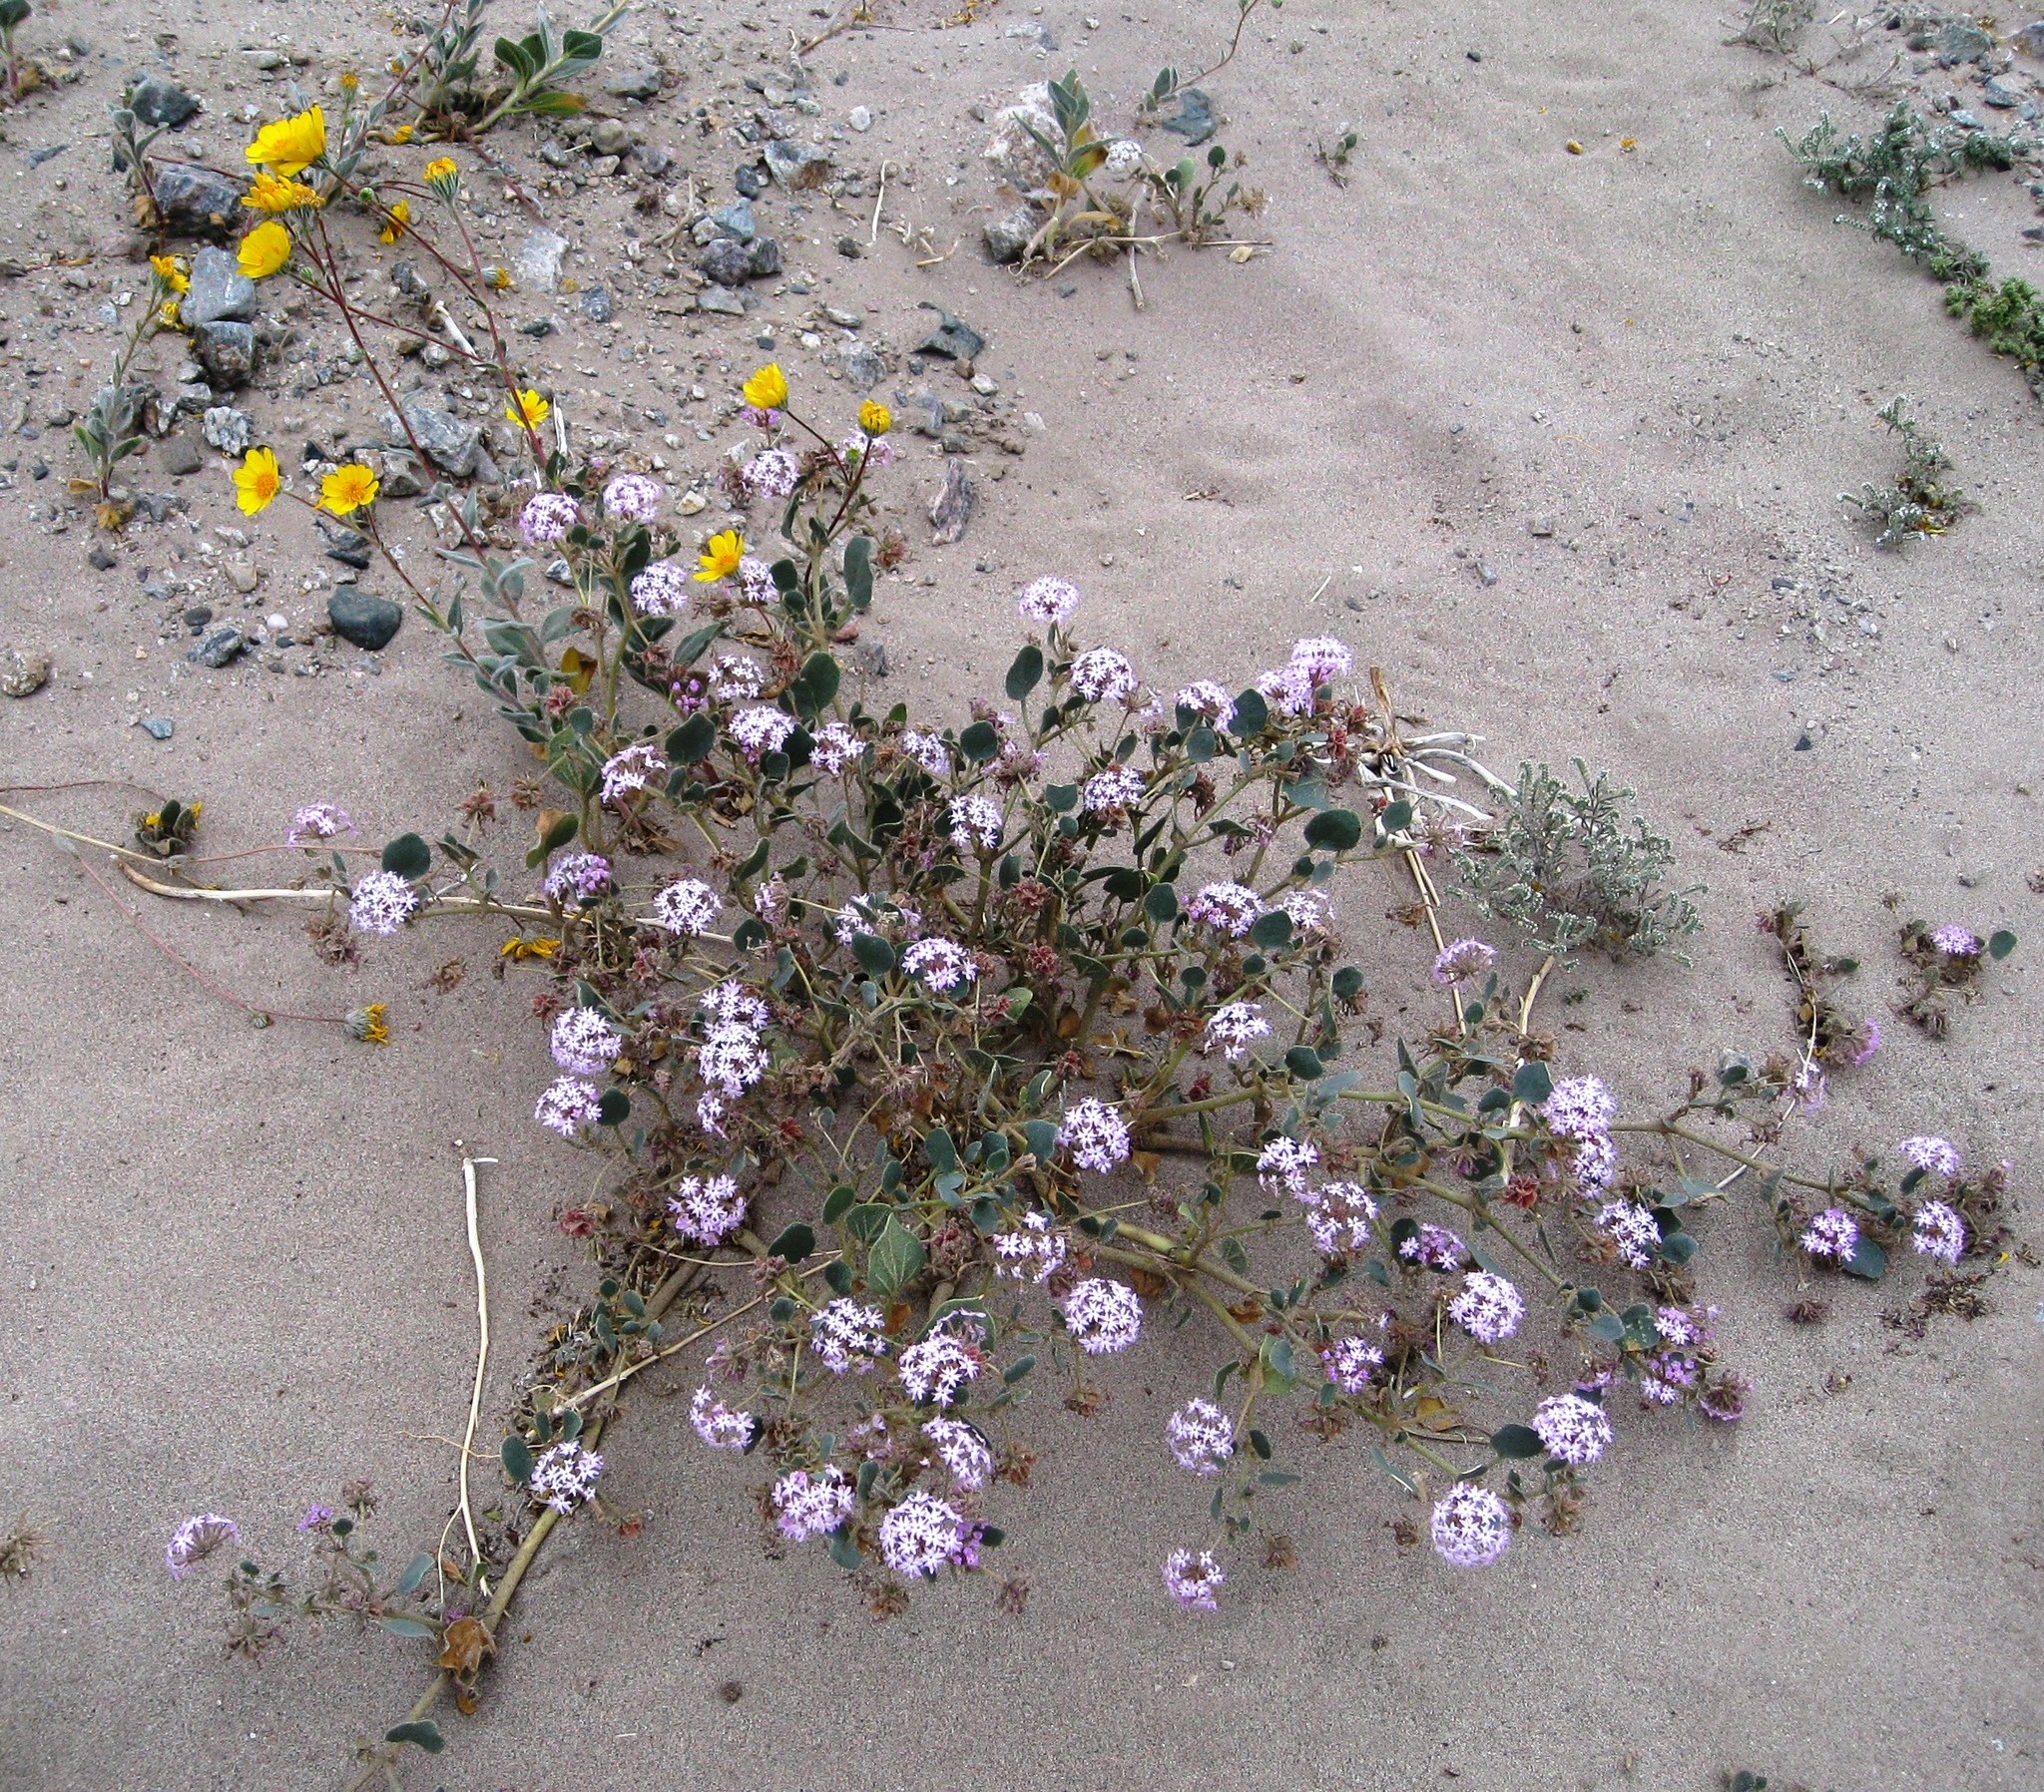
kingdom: Plantae
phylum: Tracheophyta
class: Magnoliopsida
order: Caryophyllales
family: Nyctaginaceae
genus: Abronia
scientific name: Abronia villosa
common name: Desert sand-verbena
